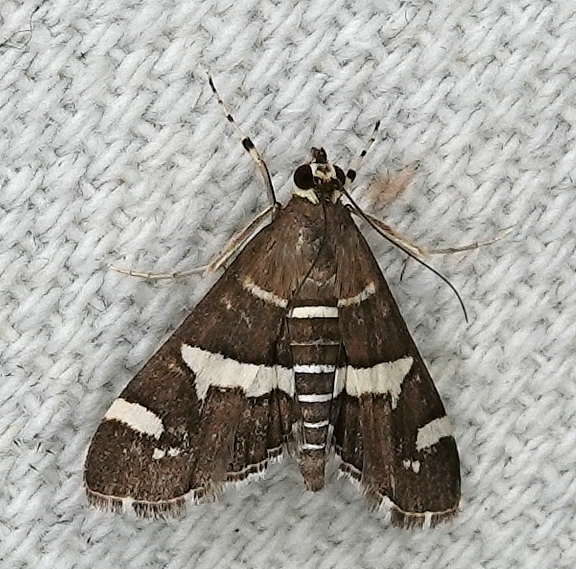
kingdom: Animalia
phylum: Arthropoda
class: Insecta
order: Lepidoptera
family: Crambidae
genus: Spoladea
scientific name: Spoladea recurvalis
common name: Beet webworm moth
